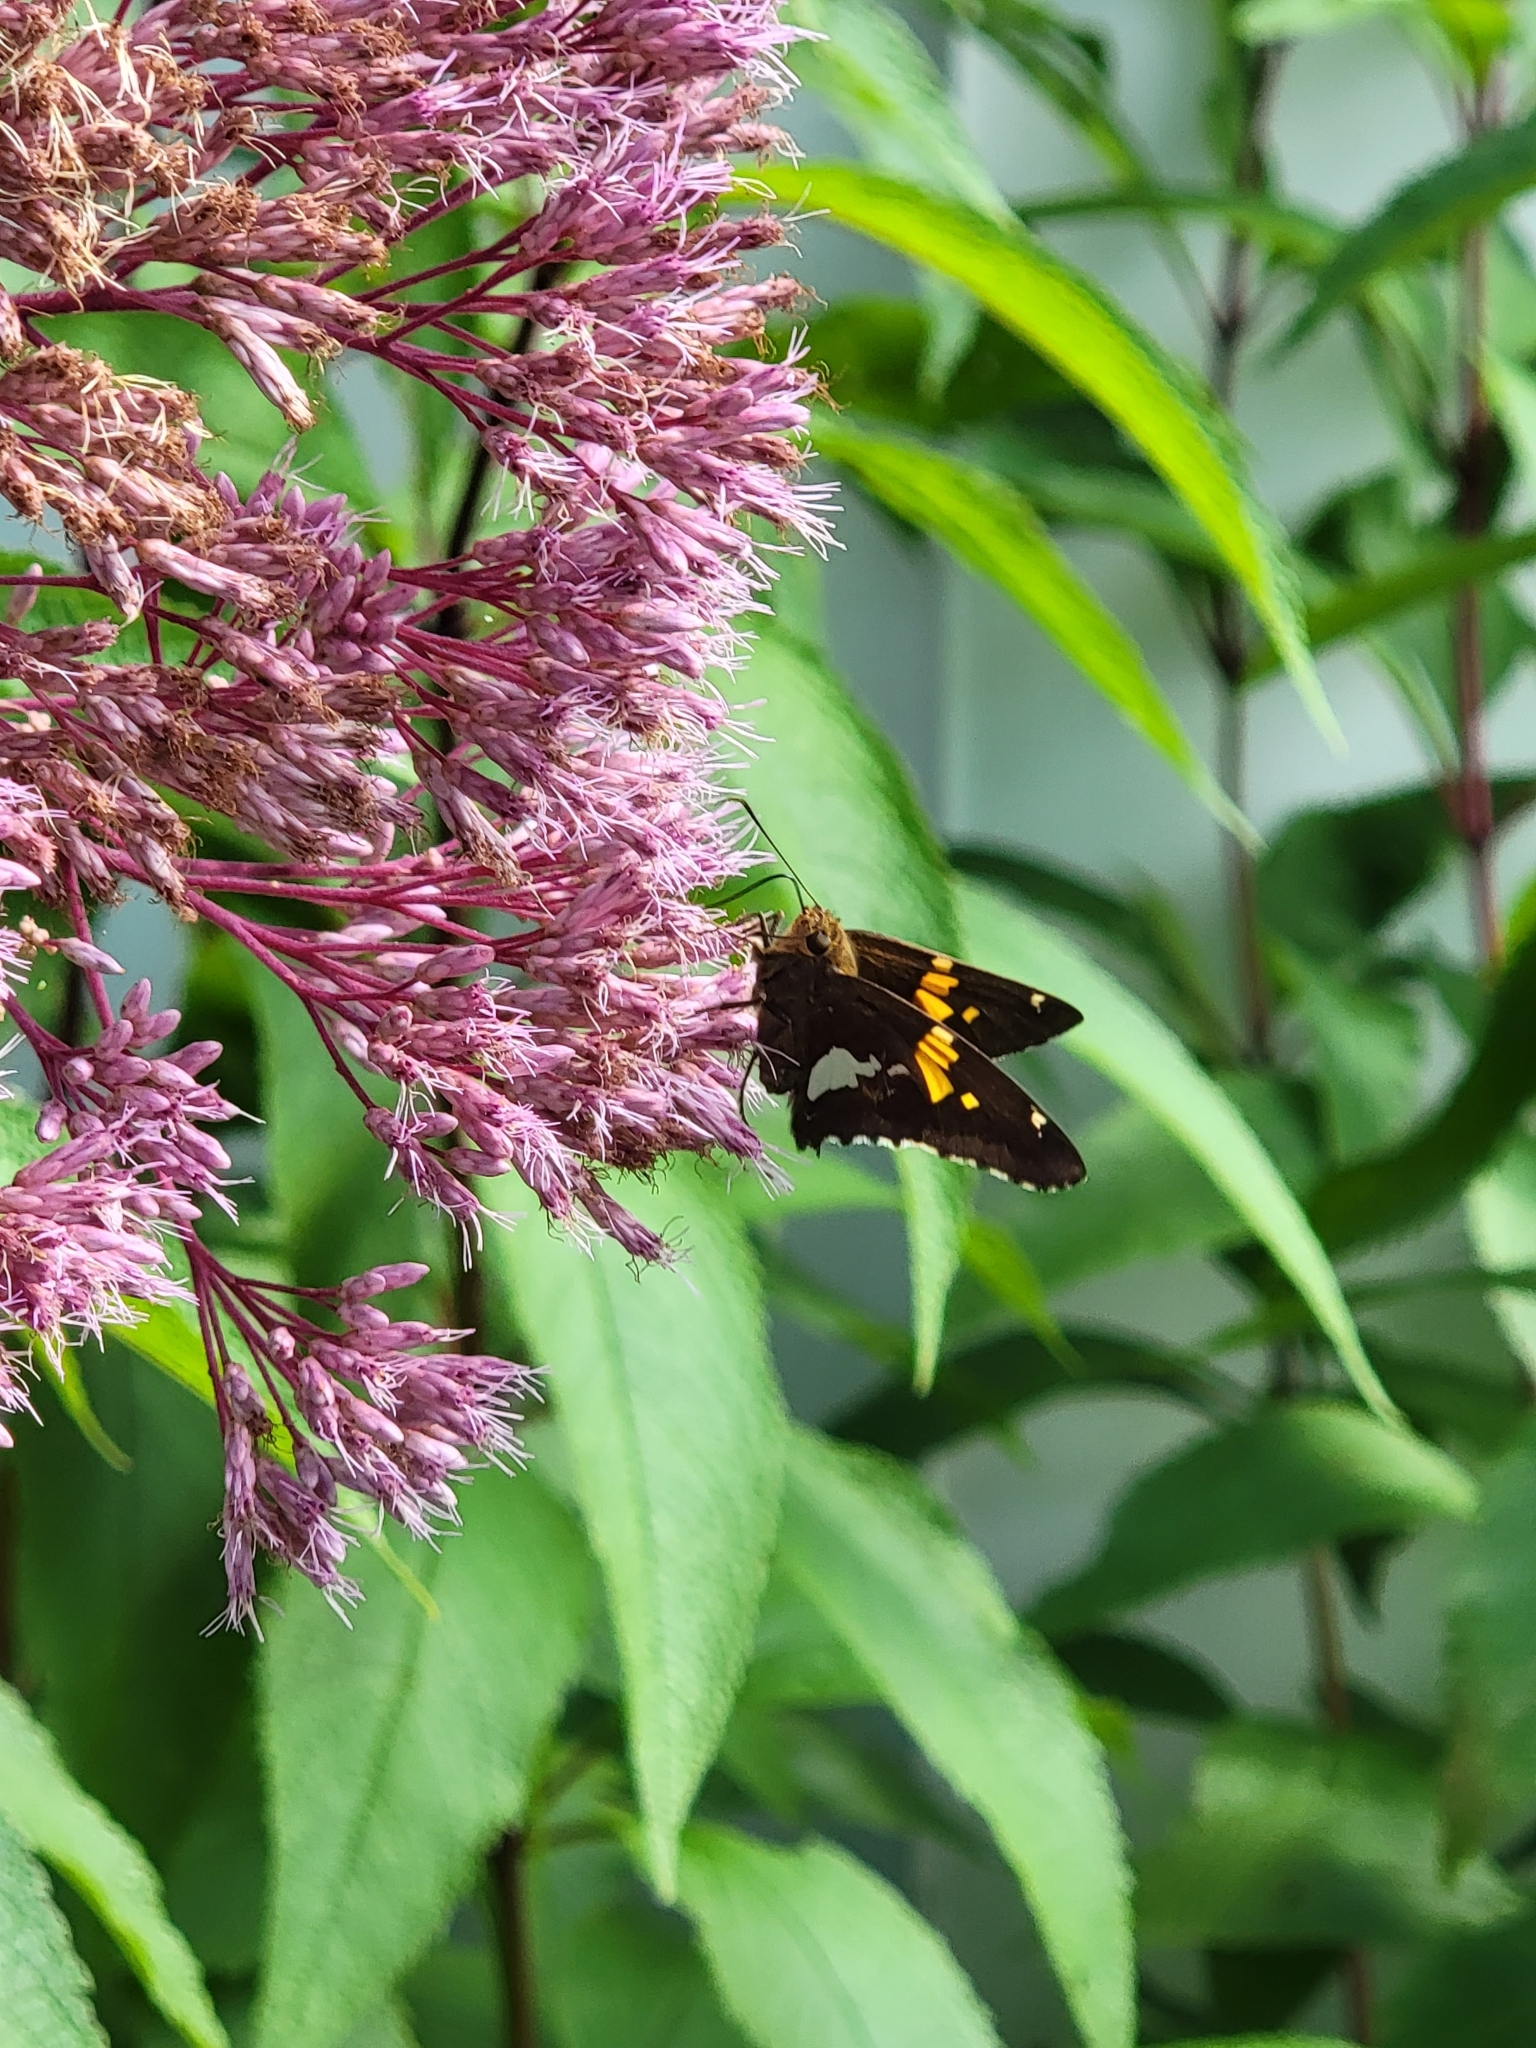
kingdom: Animalia
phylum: Arthropoda
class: Insecta
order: Lepidoptera
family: Hesperiidae
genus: Epargyreus
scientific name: Epargyreus clarus
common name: Silver-spotted skipper
